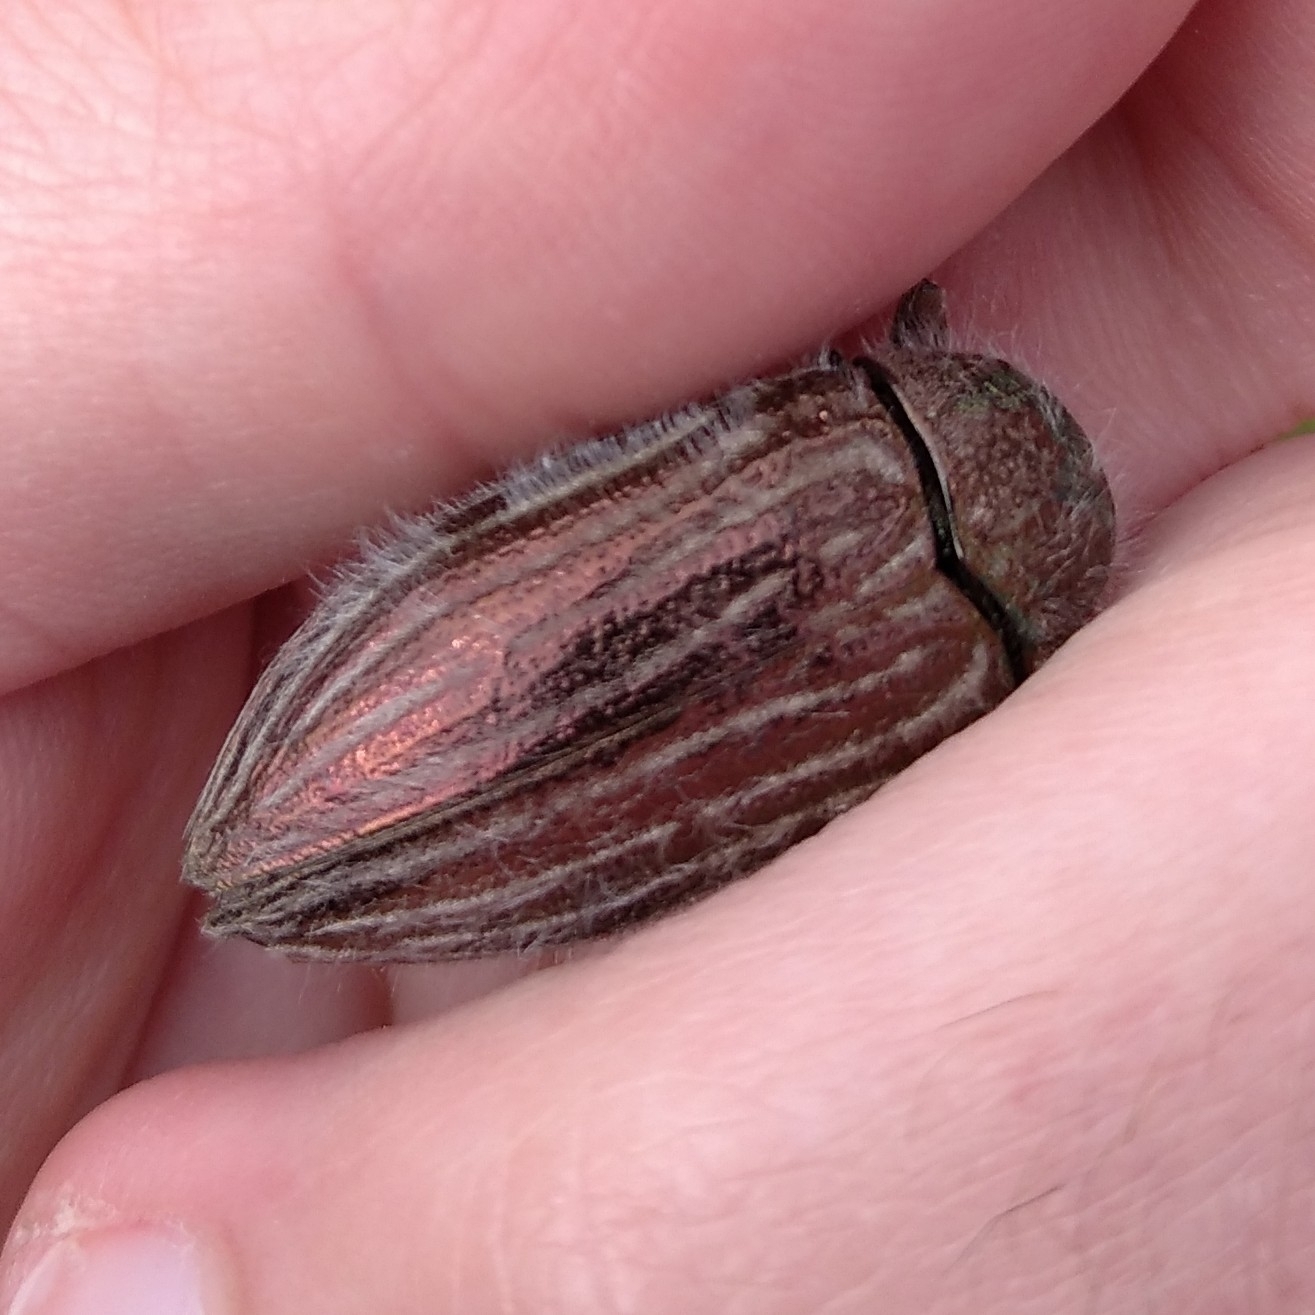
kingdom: Animalia
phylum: Arthropoda
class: Insecta
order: Coleoptera
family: Buprestidae
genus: Julodis
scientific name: Julodis pubescens
